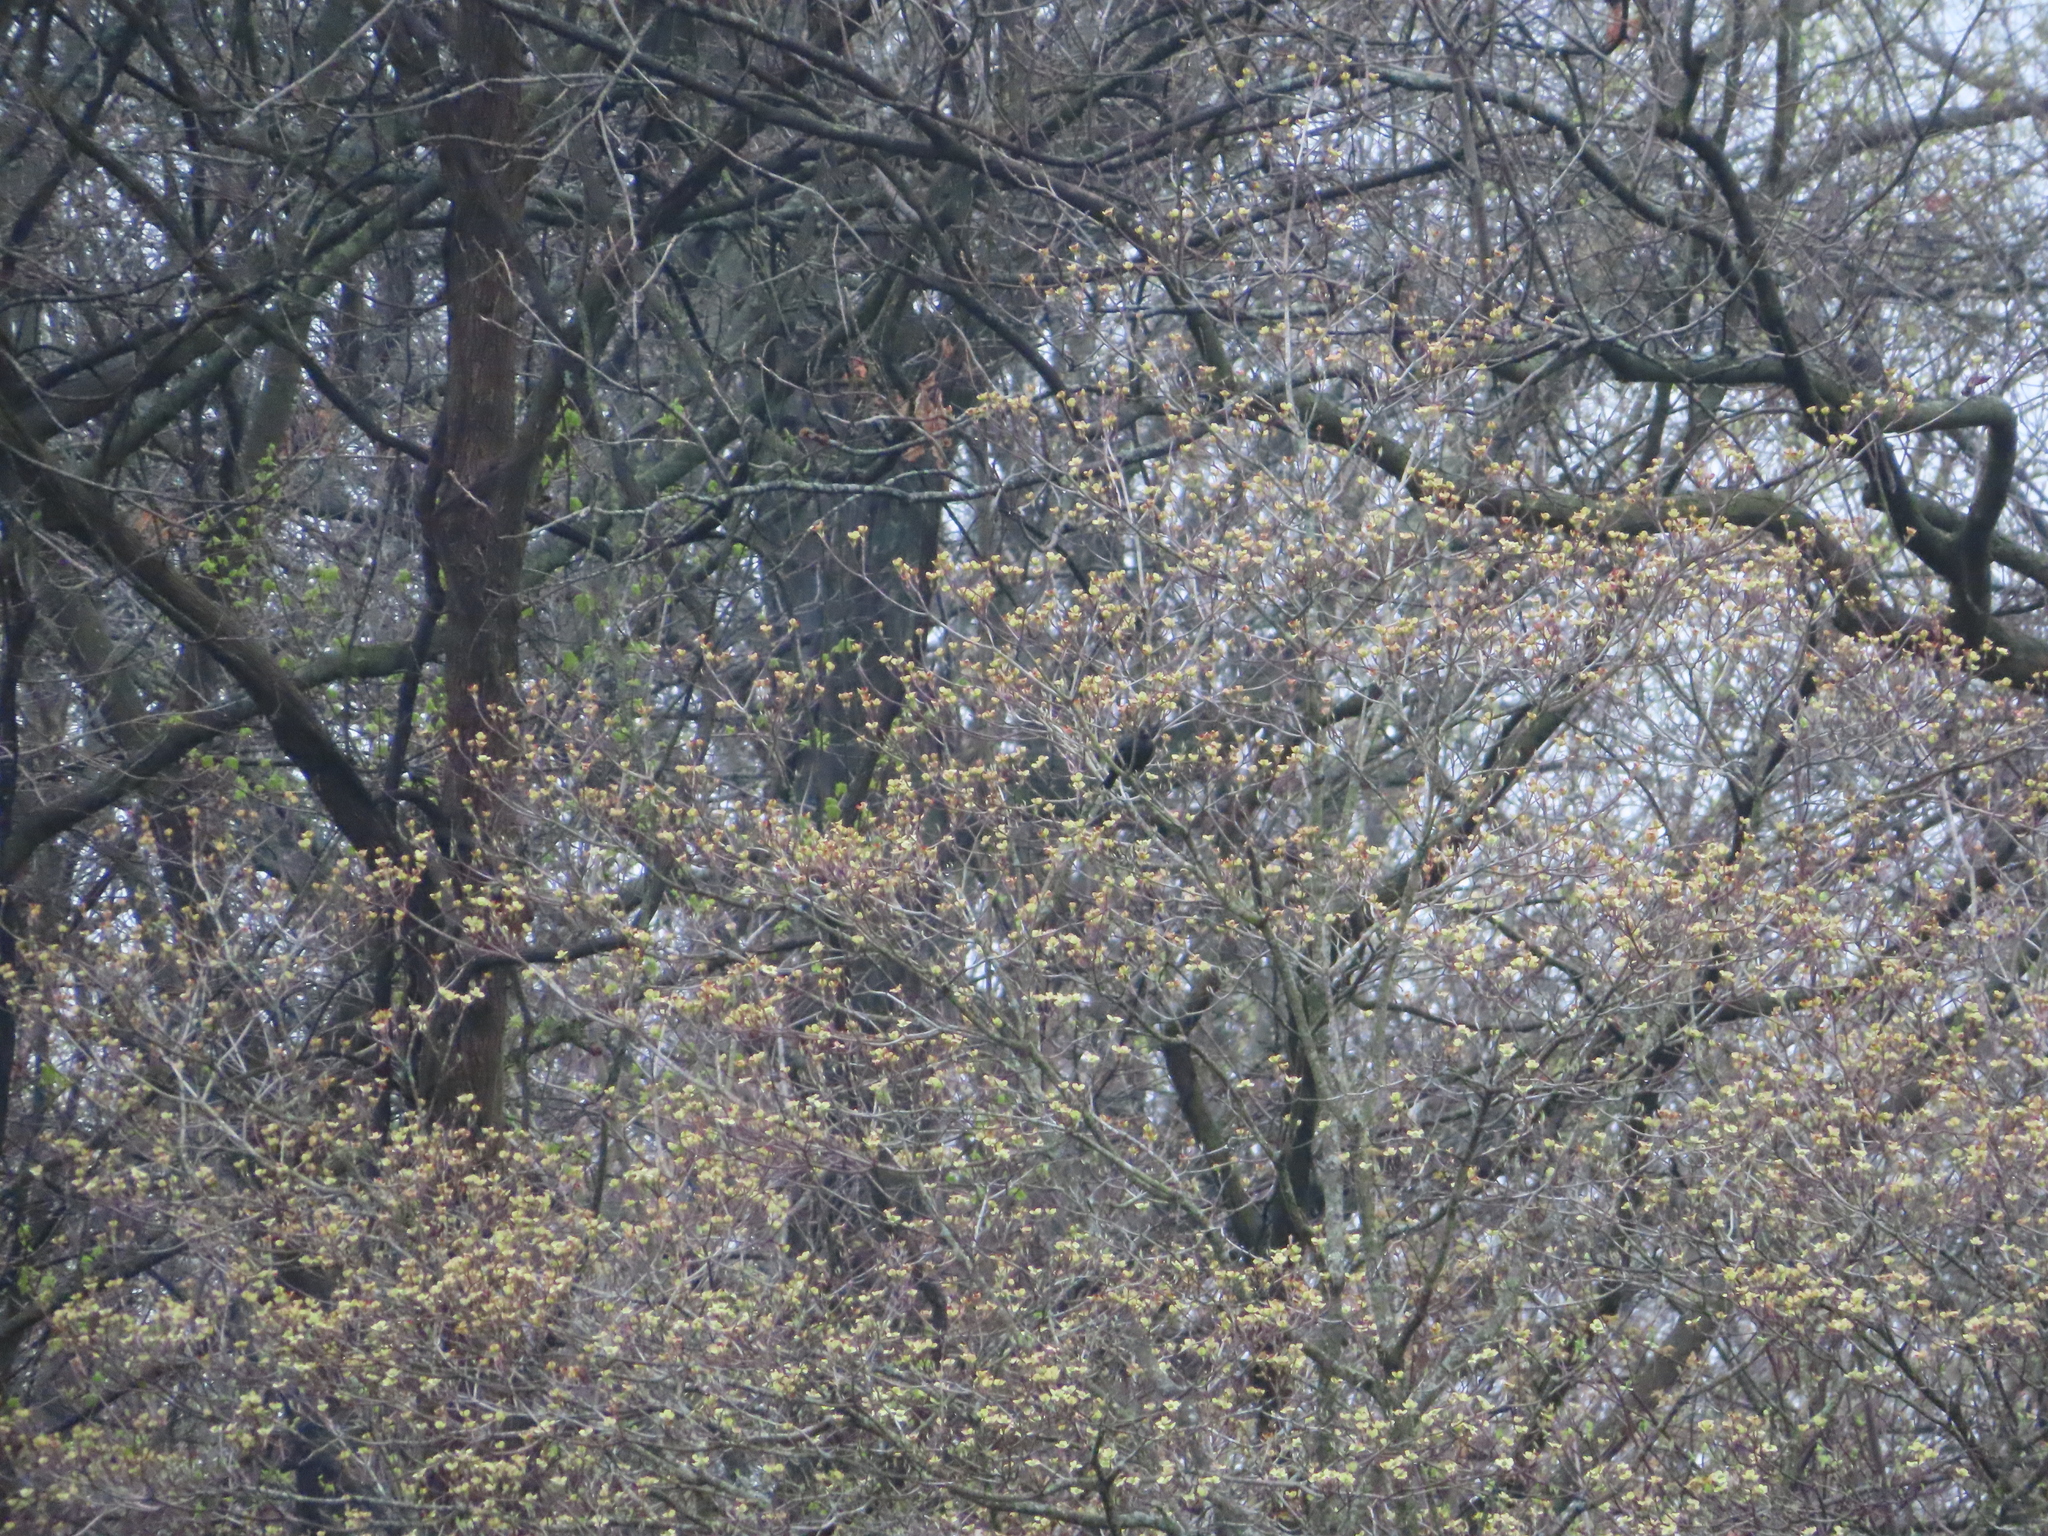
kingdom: Animalia
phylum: Chordata
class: Aves
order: Passeriformes
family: Icteridae
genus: Molothrus
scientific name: Molothrus ater
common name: Brown-headed cowbird
